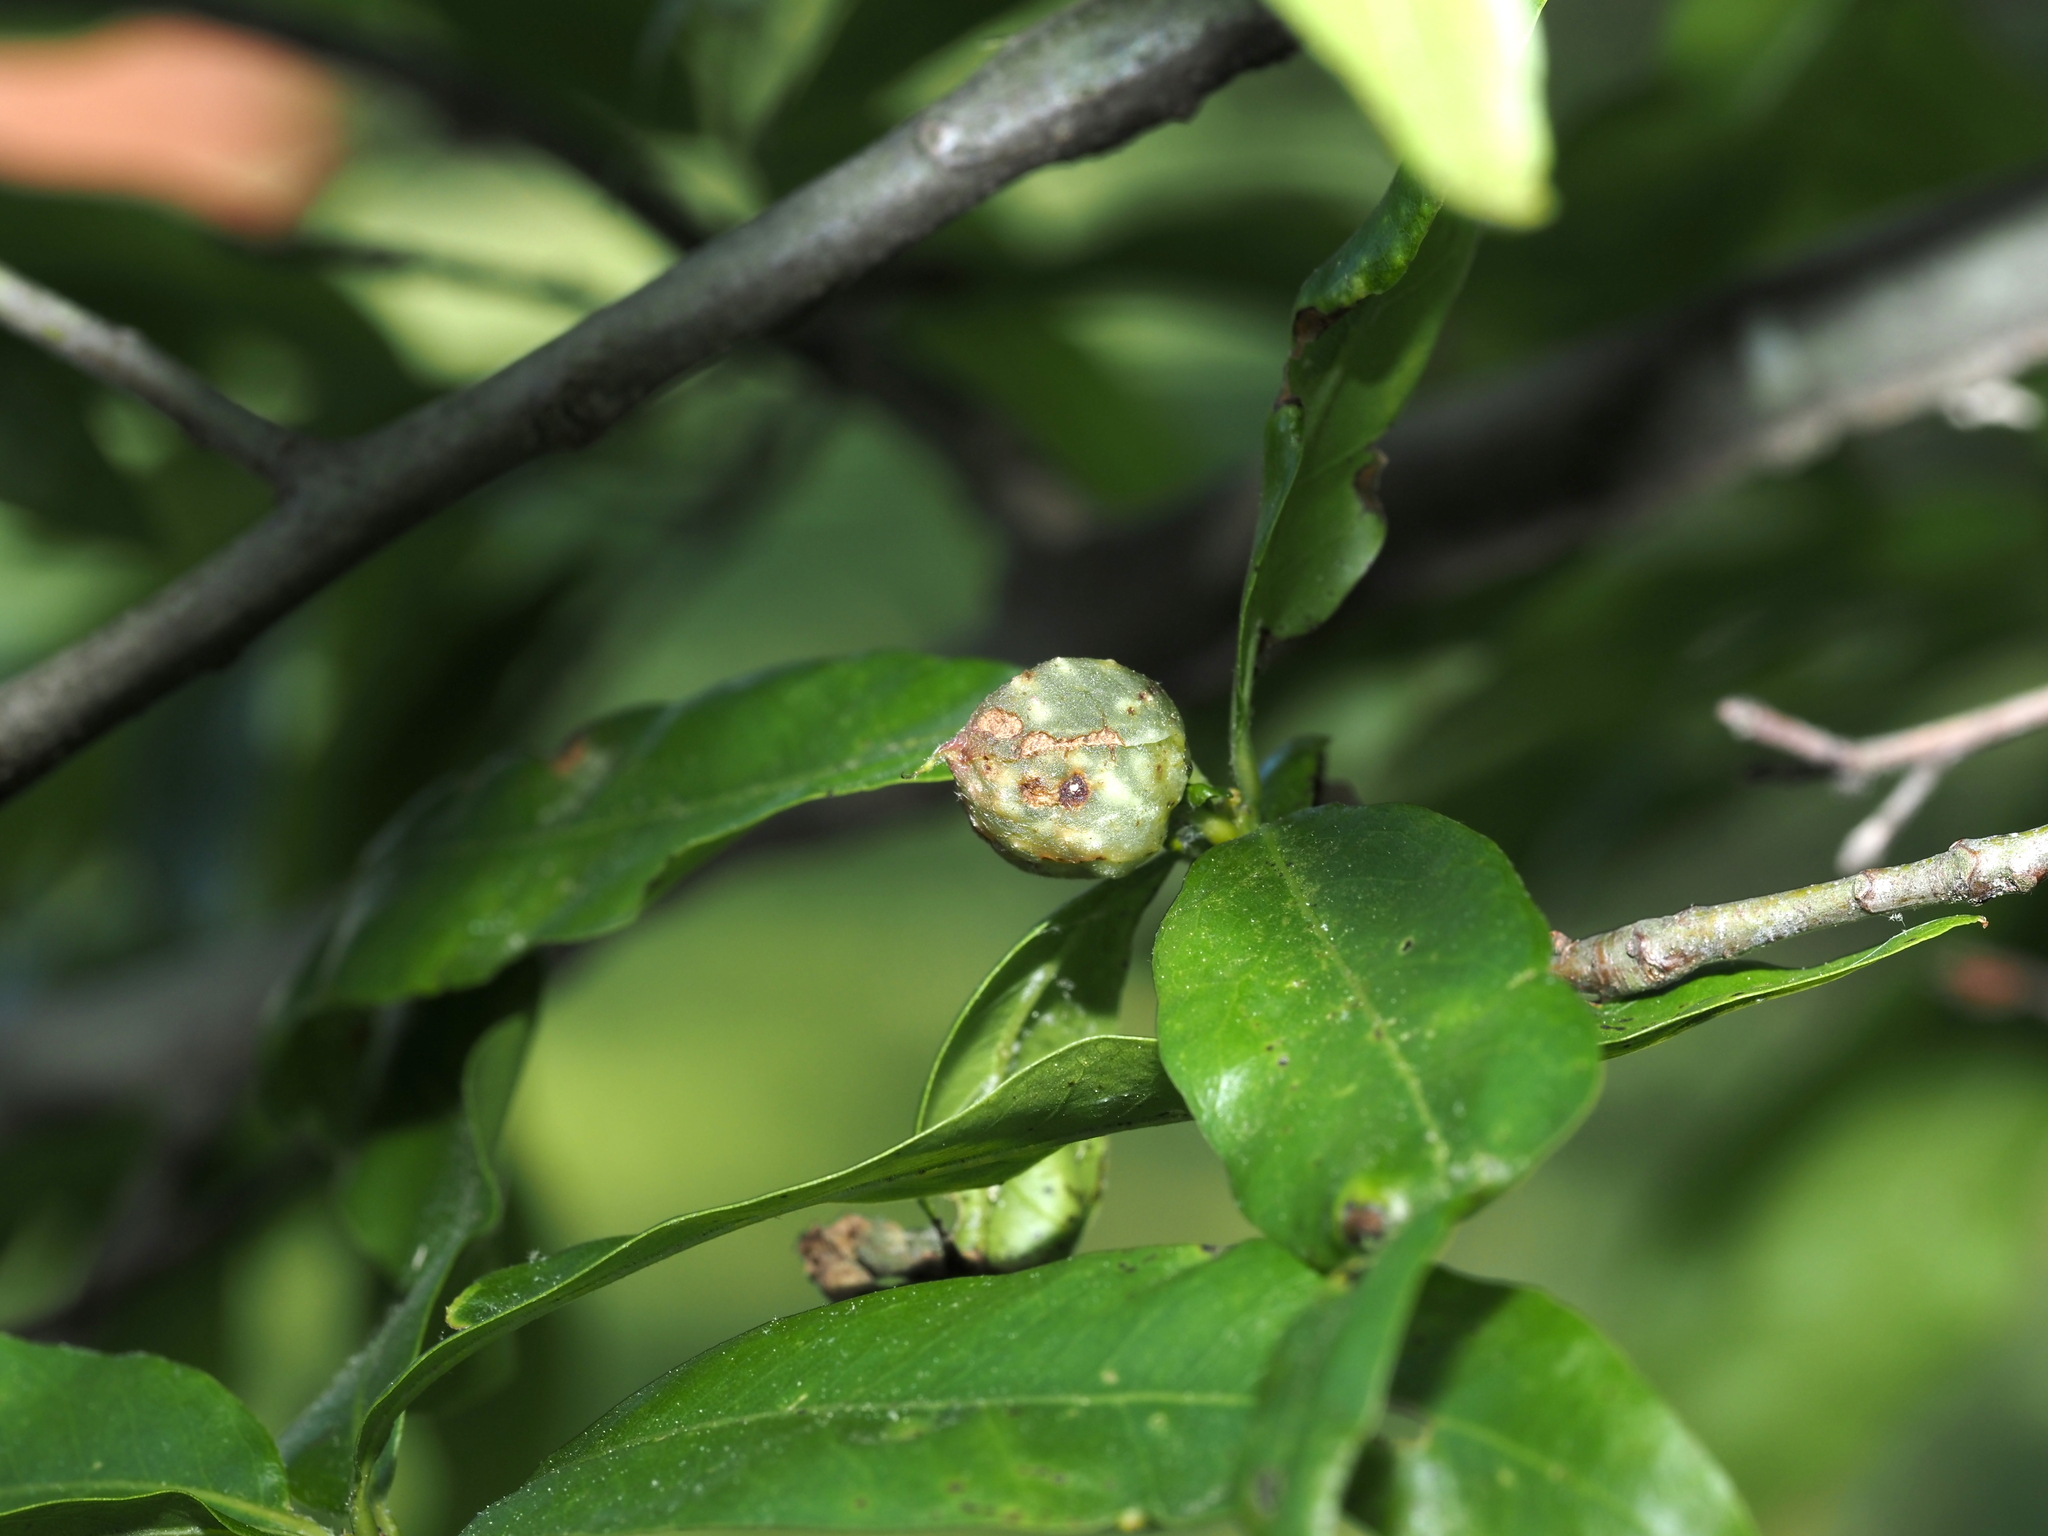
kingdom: Animalia
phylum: Arthropoda
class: Insecta
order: Hymenoptera
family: Cynipidae
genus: Dryocosmus
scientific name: Dryocosmus
